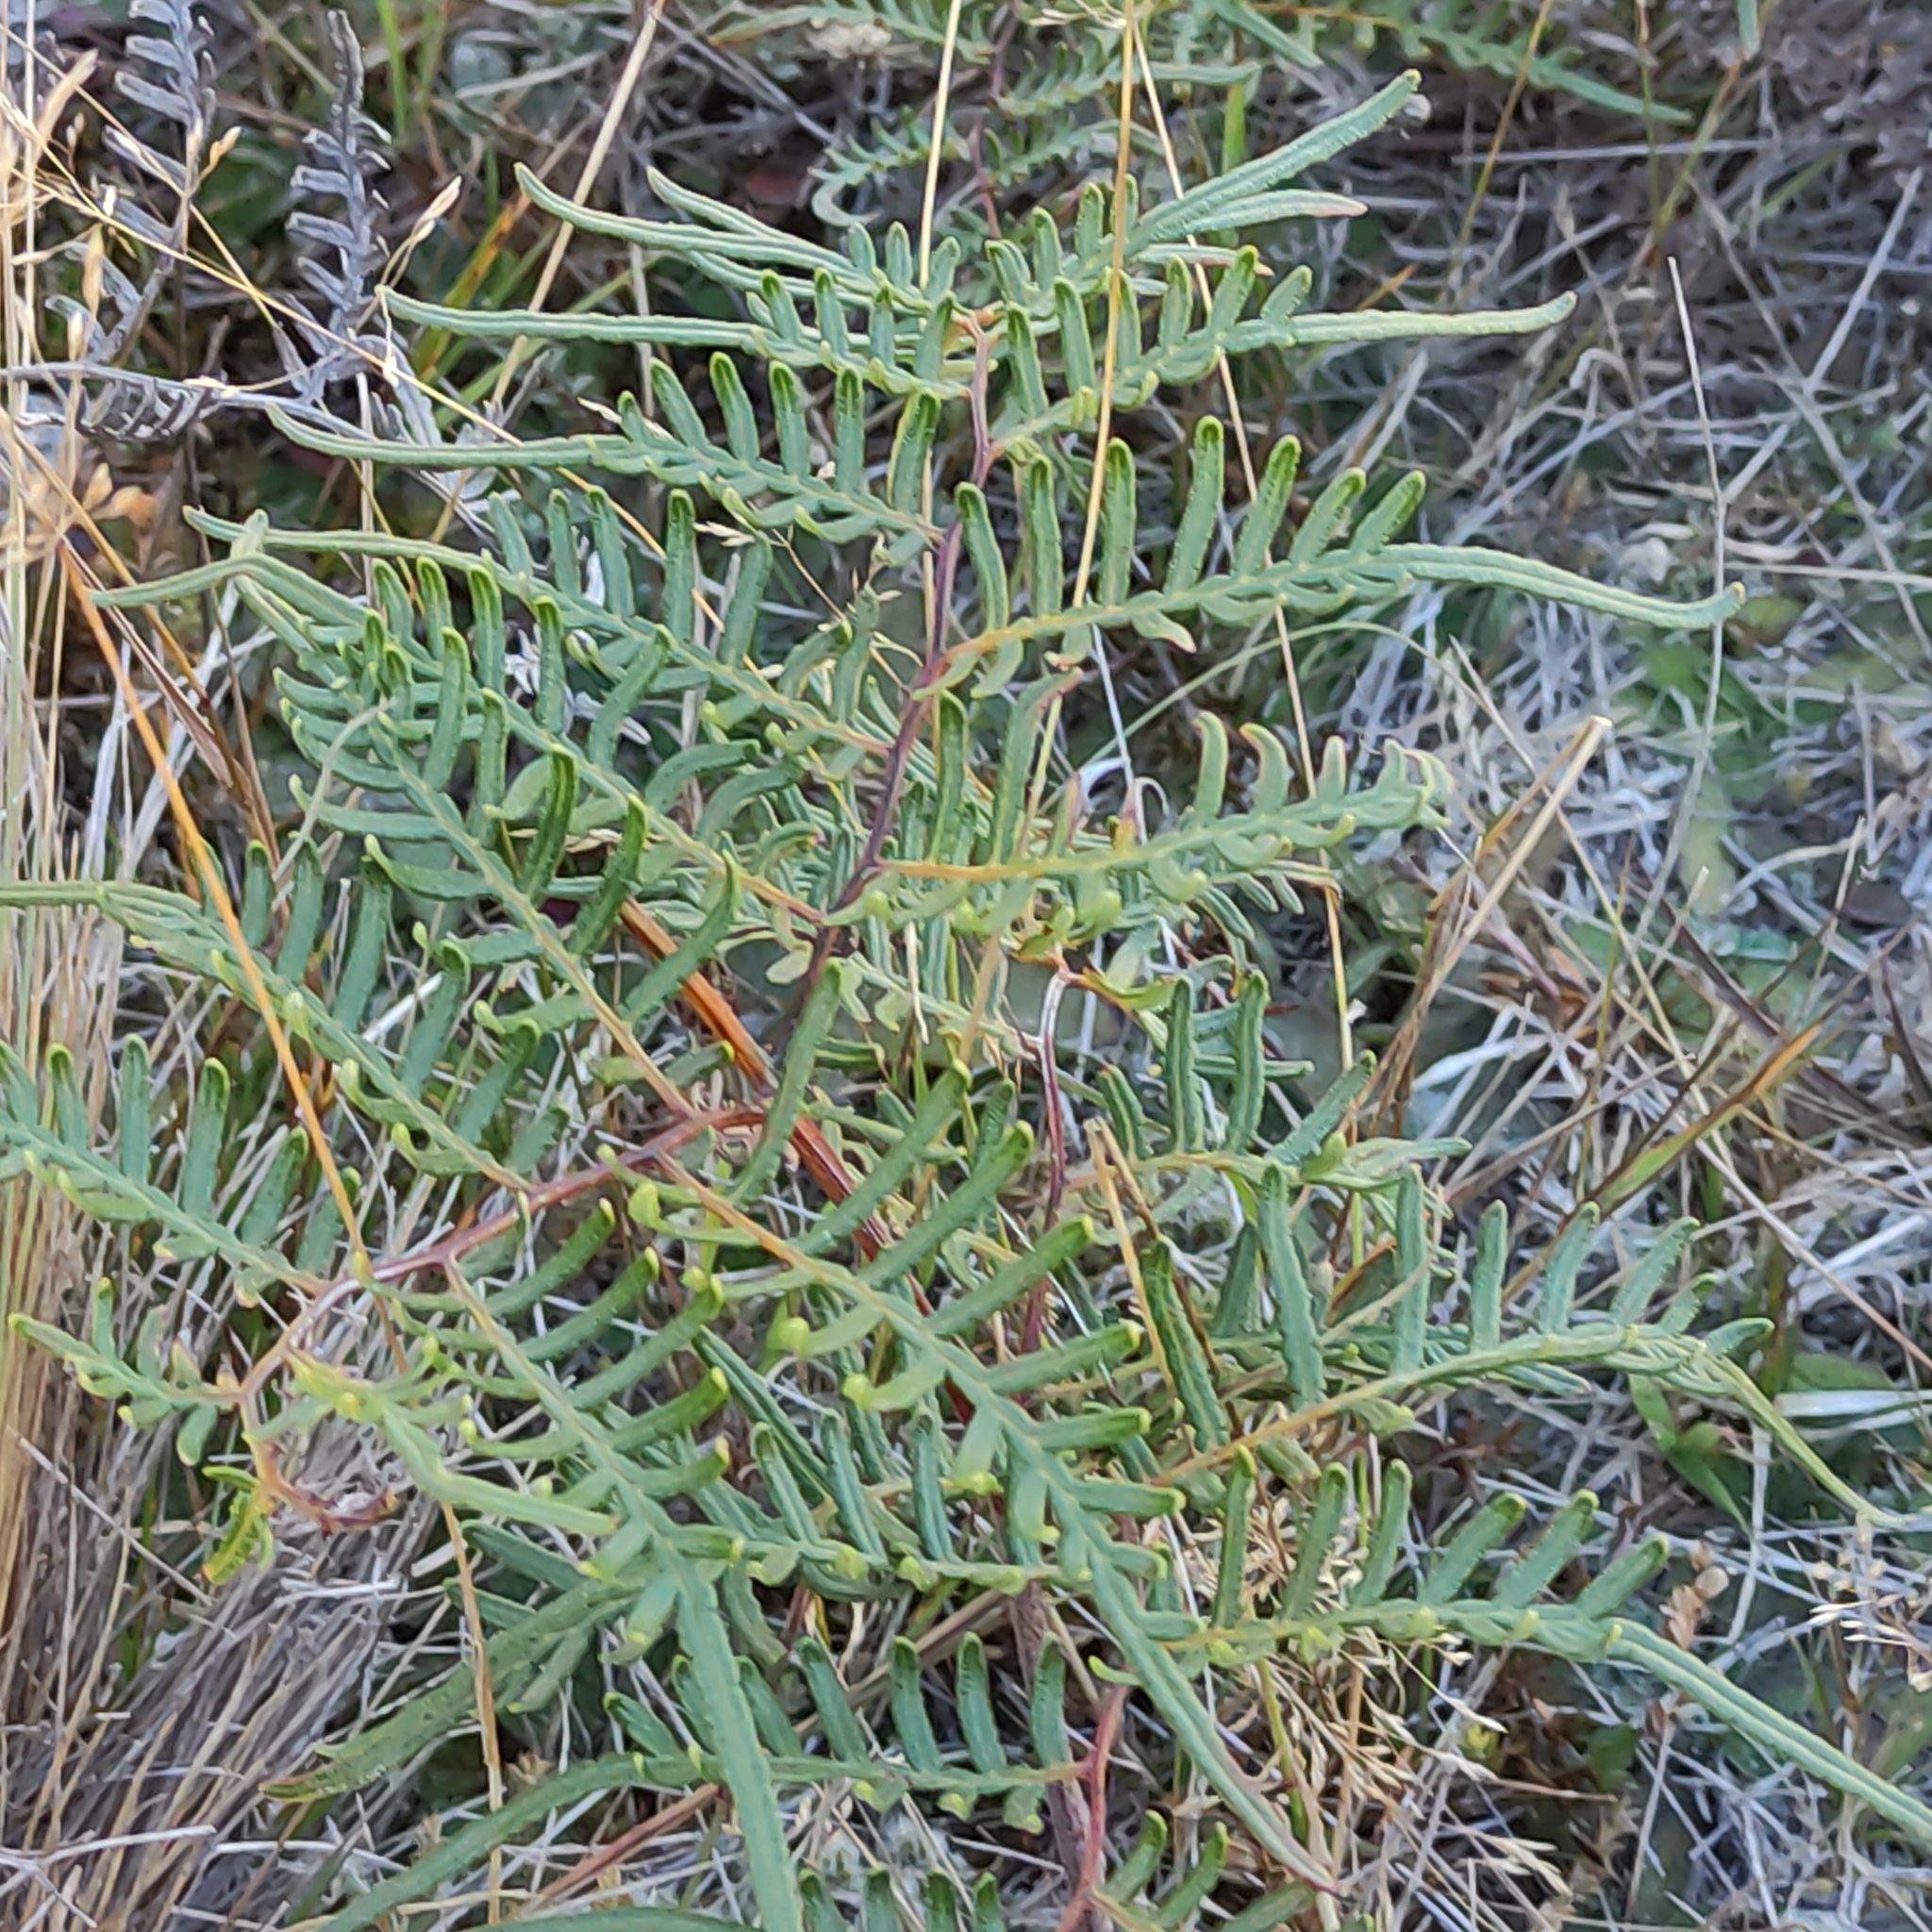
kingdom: Plantae
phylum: Tracheophyta
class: Polypodiopsida
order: Polypodiales
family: Dennstaedtiaceae
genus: Pteridium
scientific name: Pteridium esculentum
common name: Bracken fern
